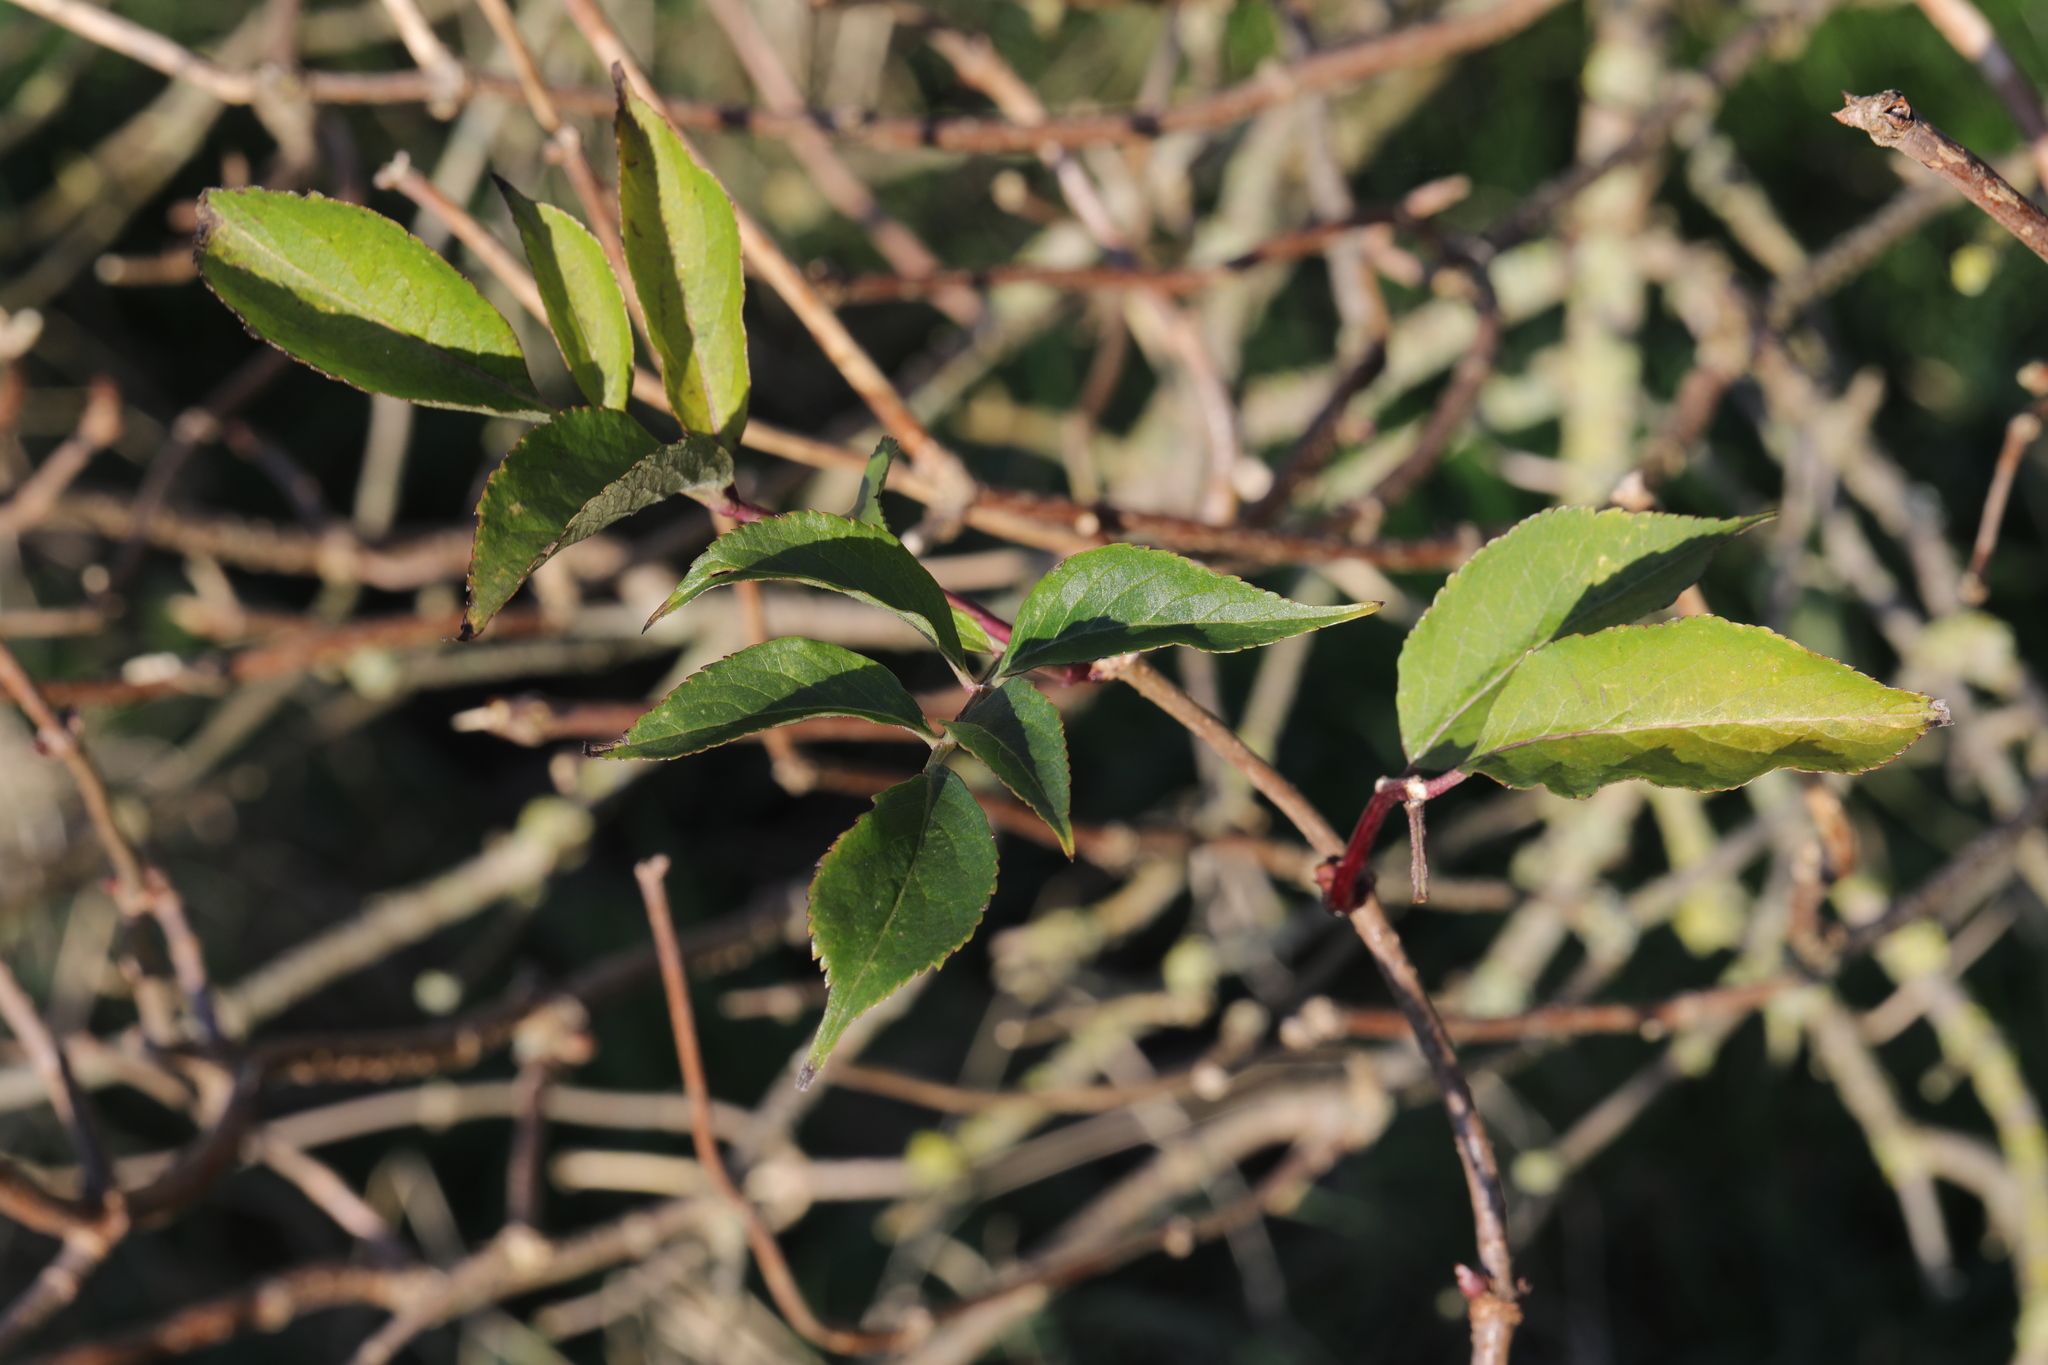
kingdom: Plantae
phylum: Tracheophyta
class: Magnoliopsida
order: Dipsacales
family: Viburnaceae
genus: Sambucus
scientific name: Sambucus nigra
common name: Elder
